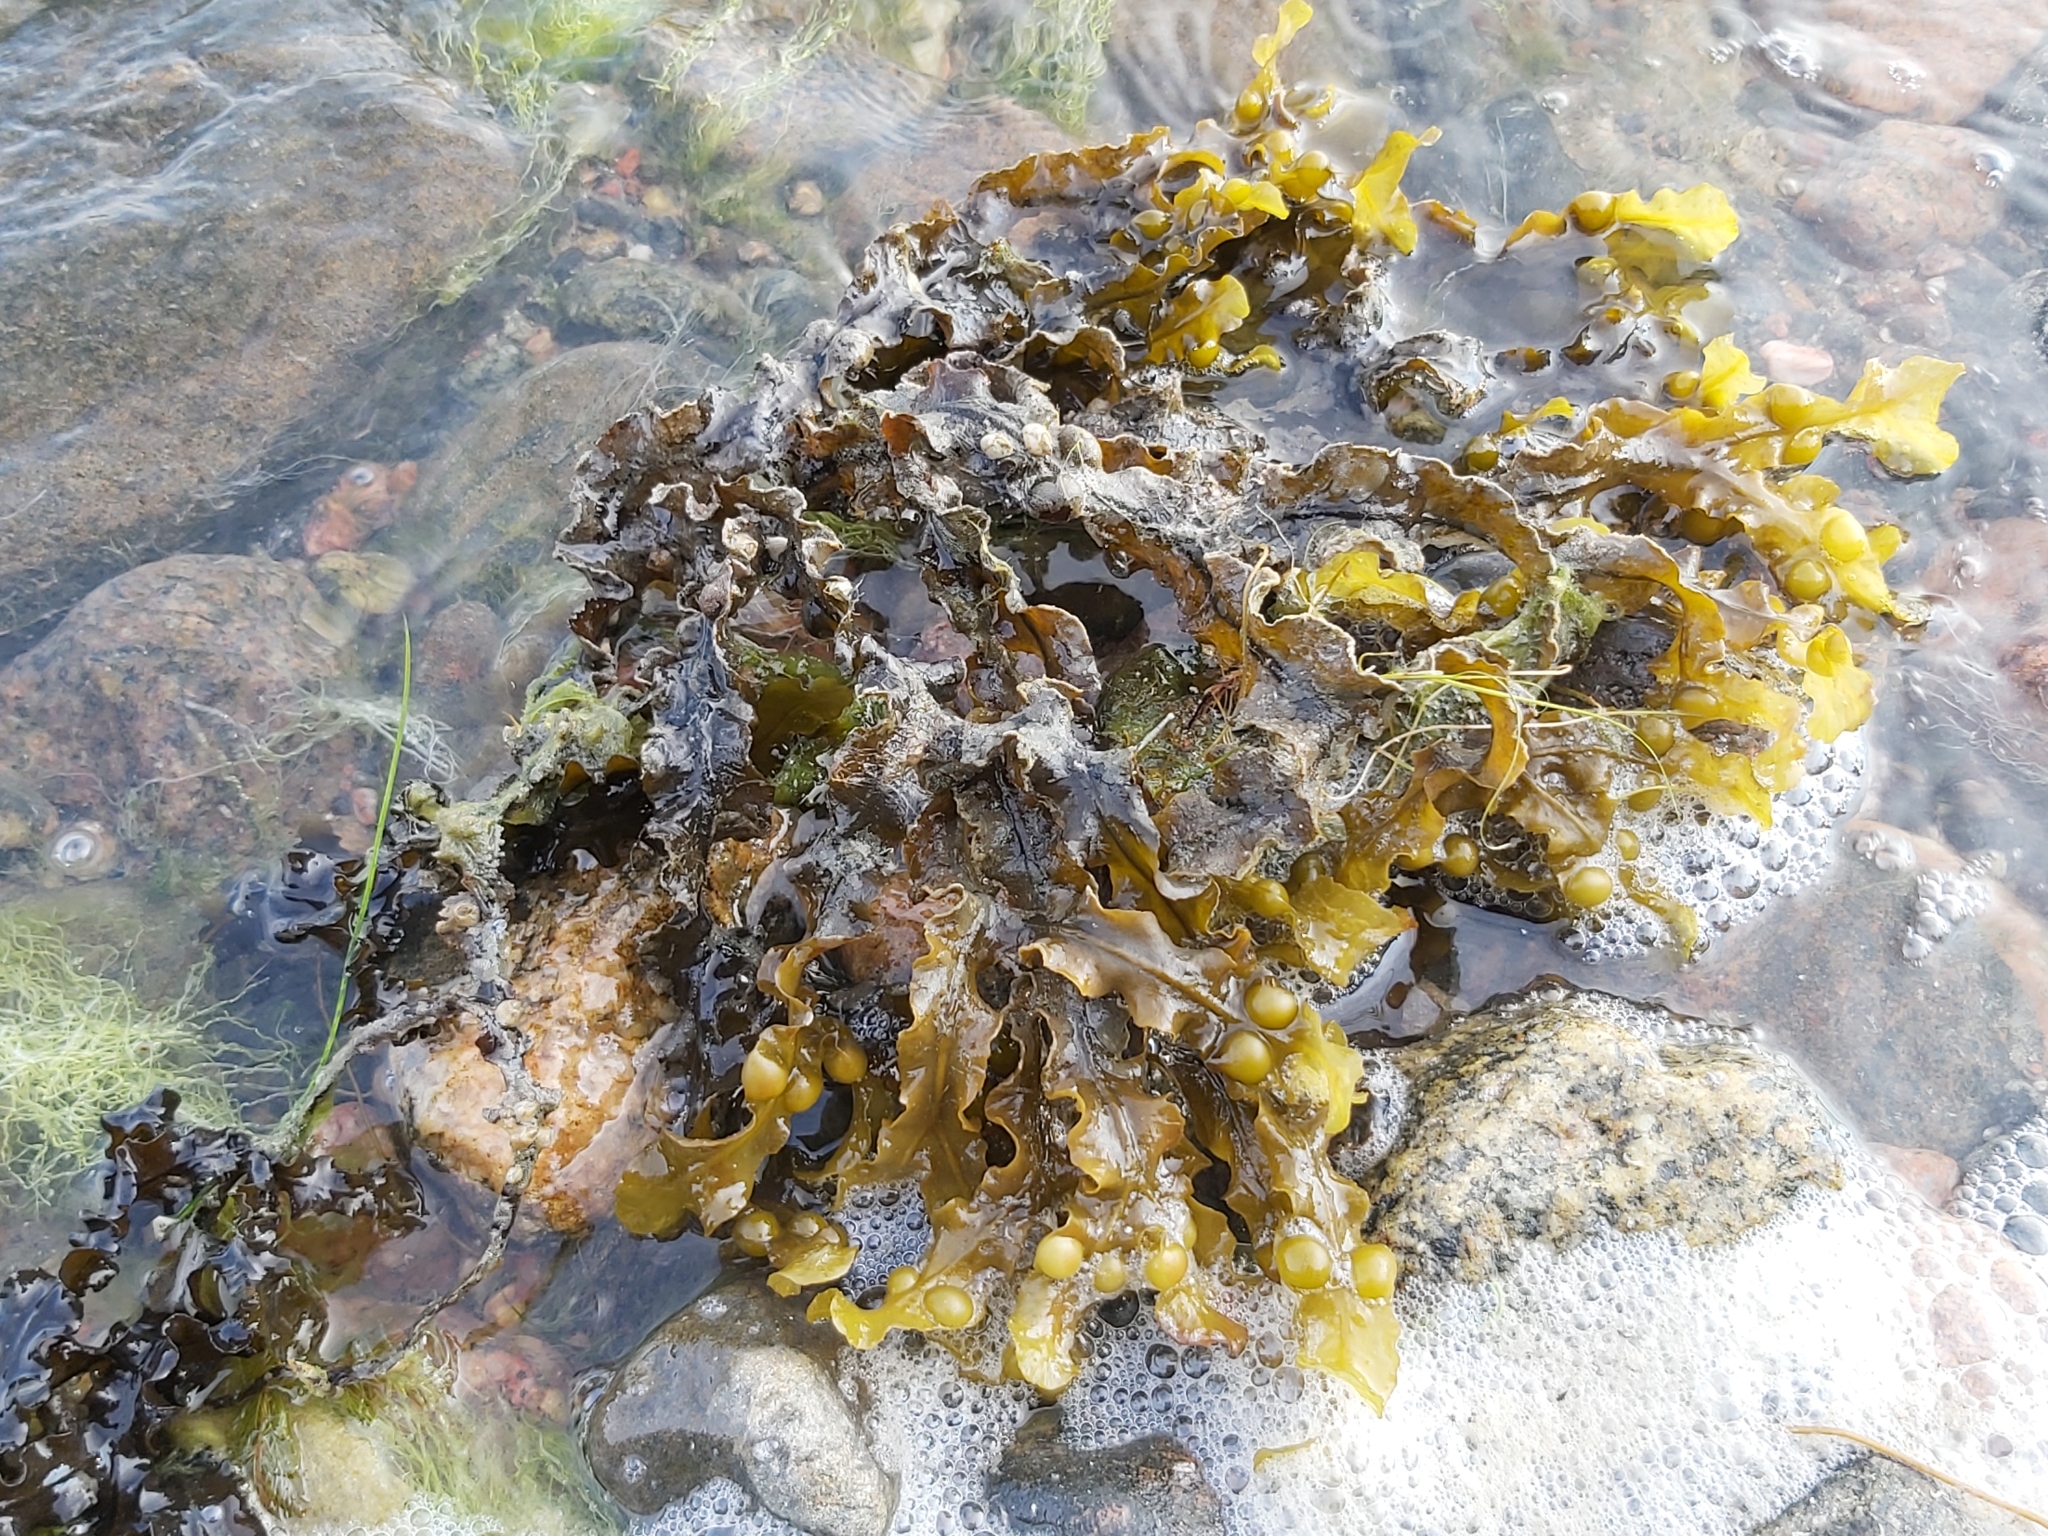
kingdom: Chromista
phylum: Ochrophyta
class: Phaeophyceae
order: Fucales
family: Fucaceae
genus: Fucus
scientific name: Fucus vesiculosus
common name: Bladder wrack
